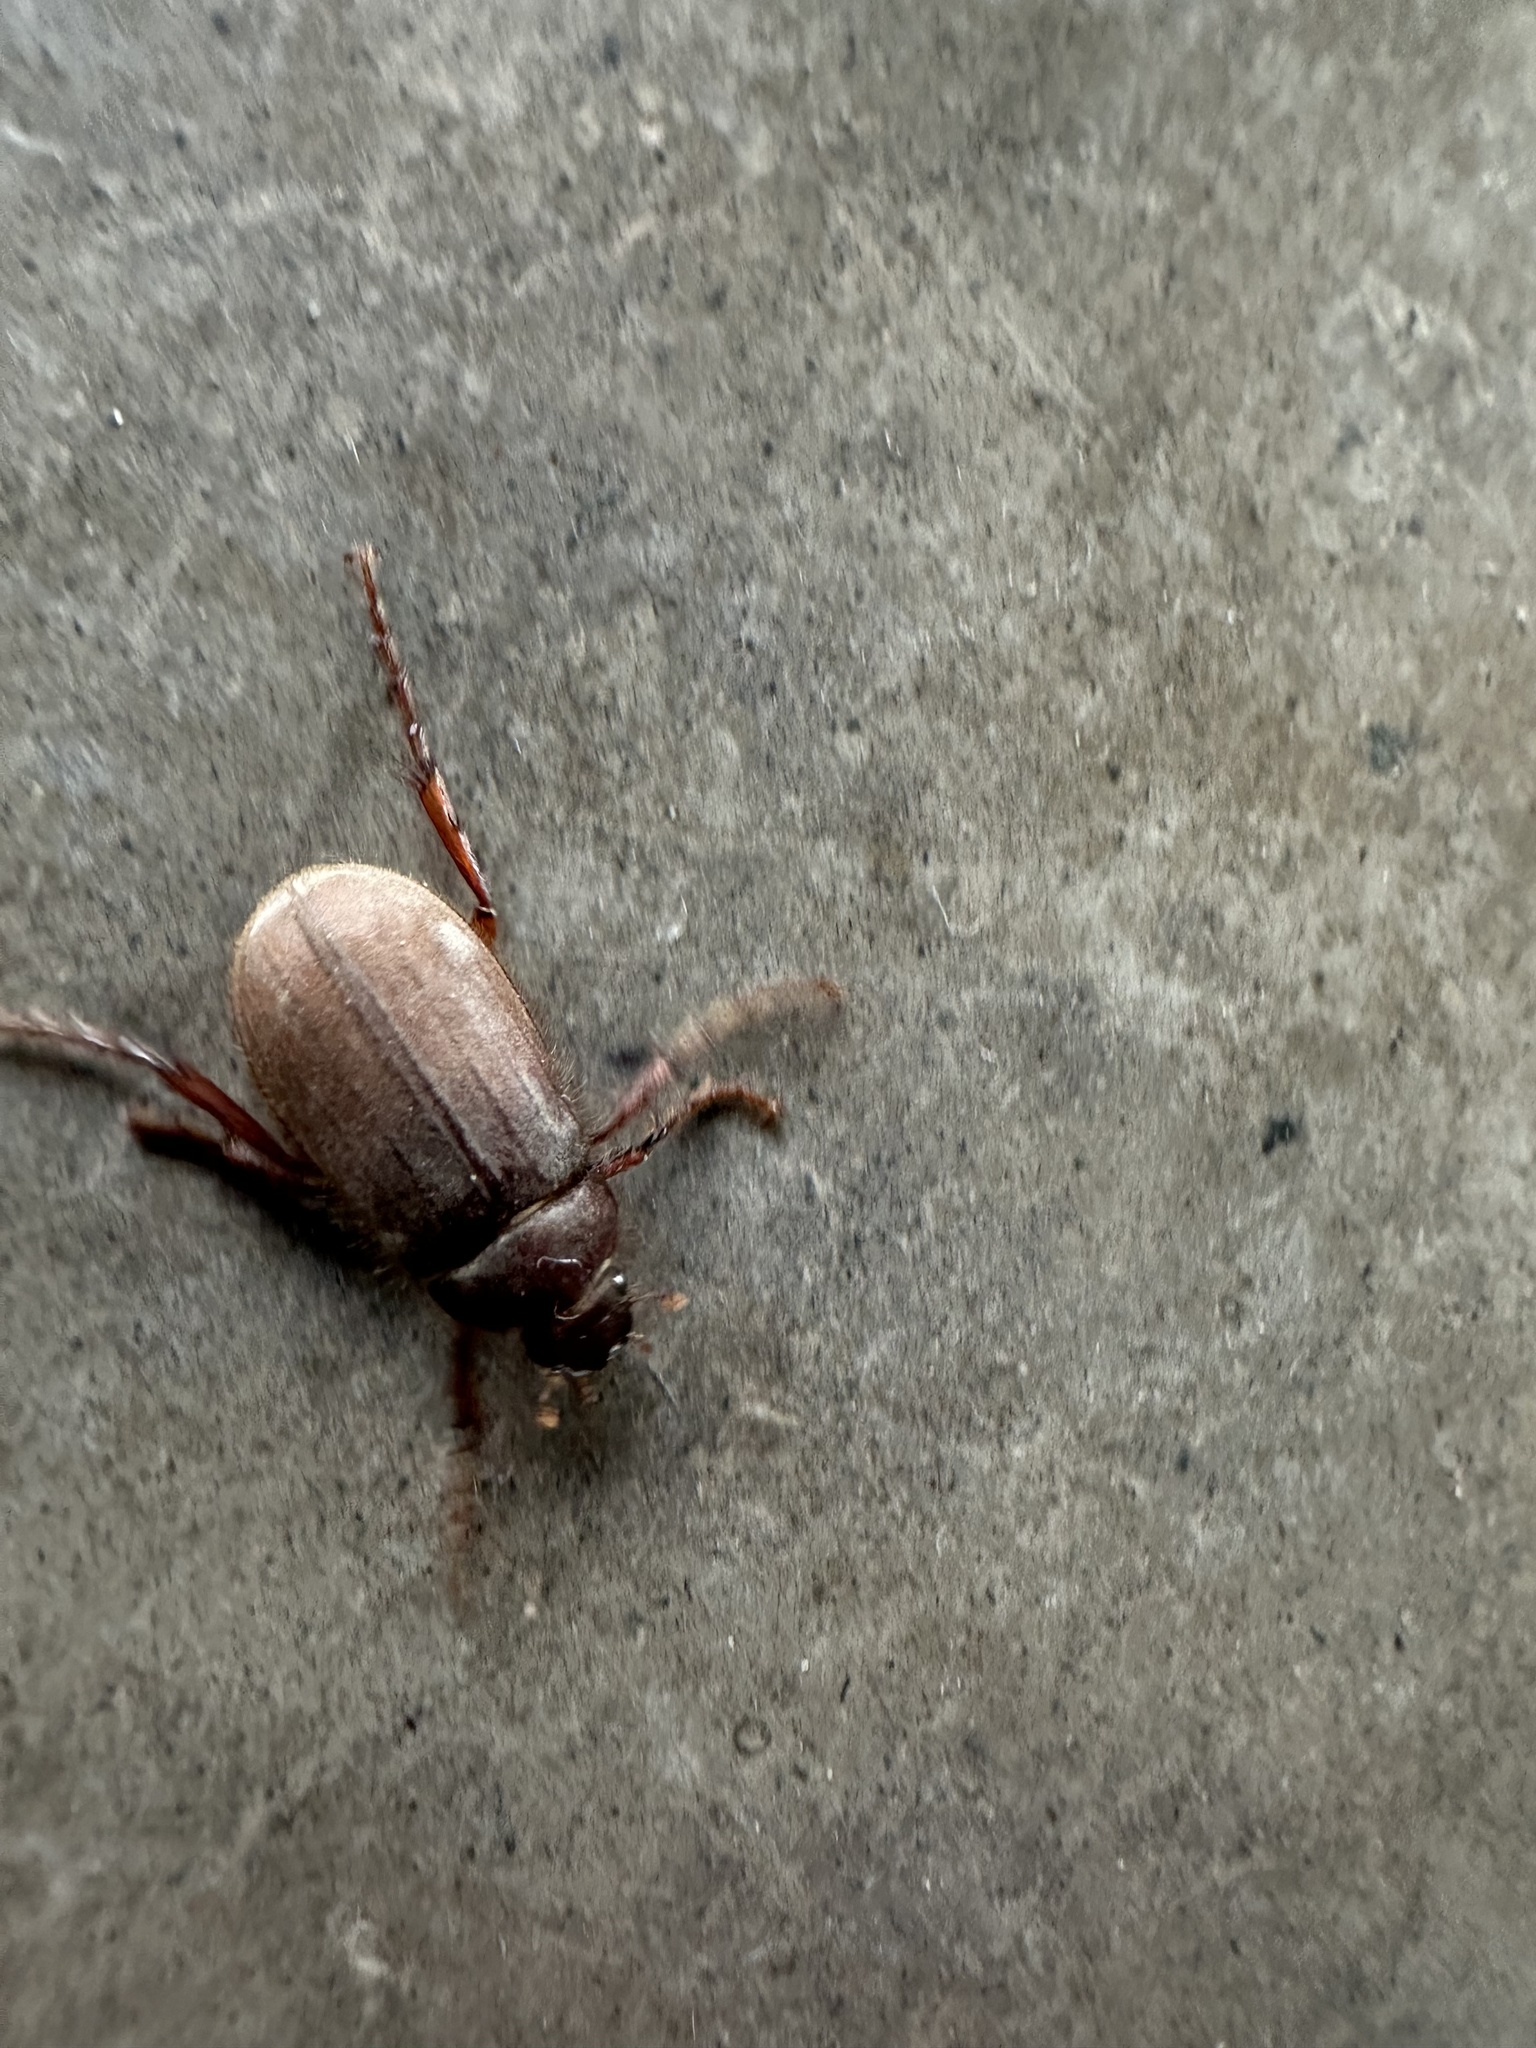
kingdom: Animalia
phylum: Arthropoda
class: Insecta
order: Coleoptera
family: Scarabaeidae
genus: Athlia
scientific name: Athlia rustica
